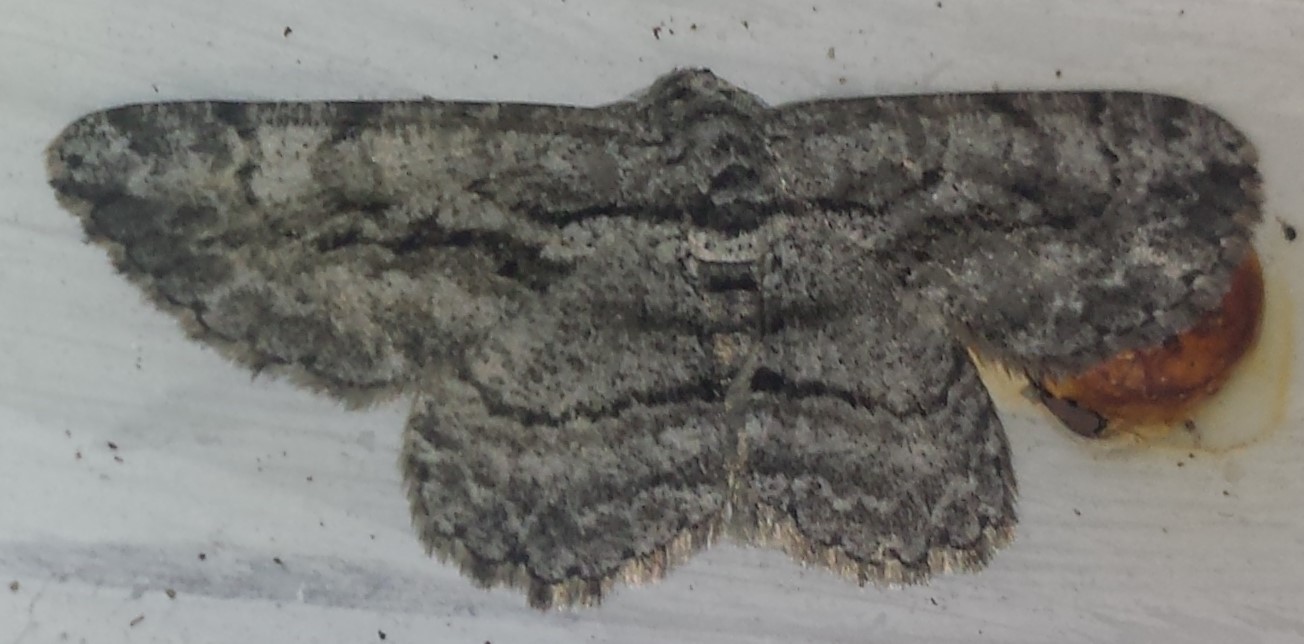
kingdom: Animalia
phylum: Arthropoda
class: Insecta
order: Lepidoptera
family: Geometridae
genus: Anavitrinella
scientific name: Anavitrinella pampinaria
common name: Common gray
